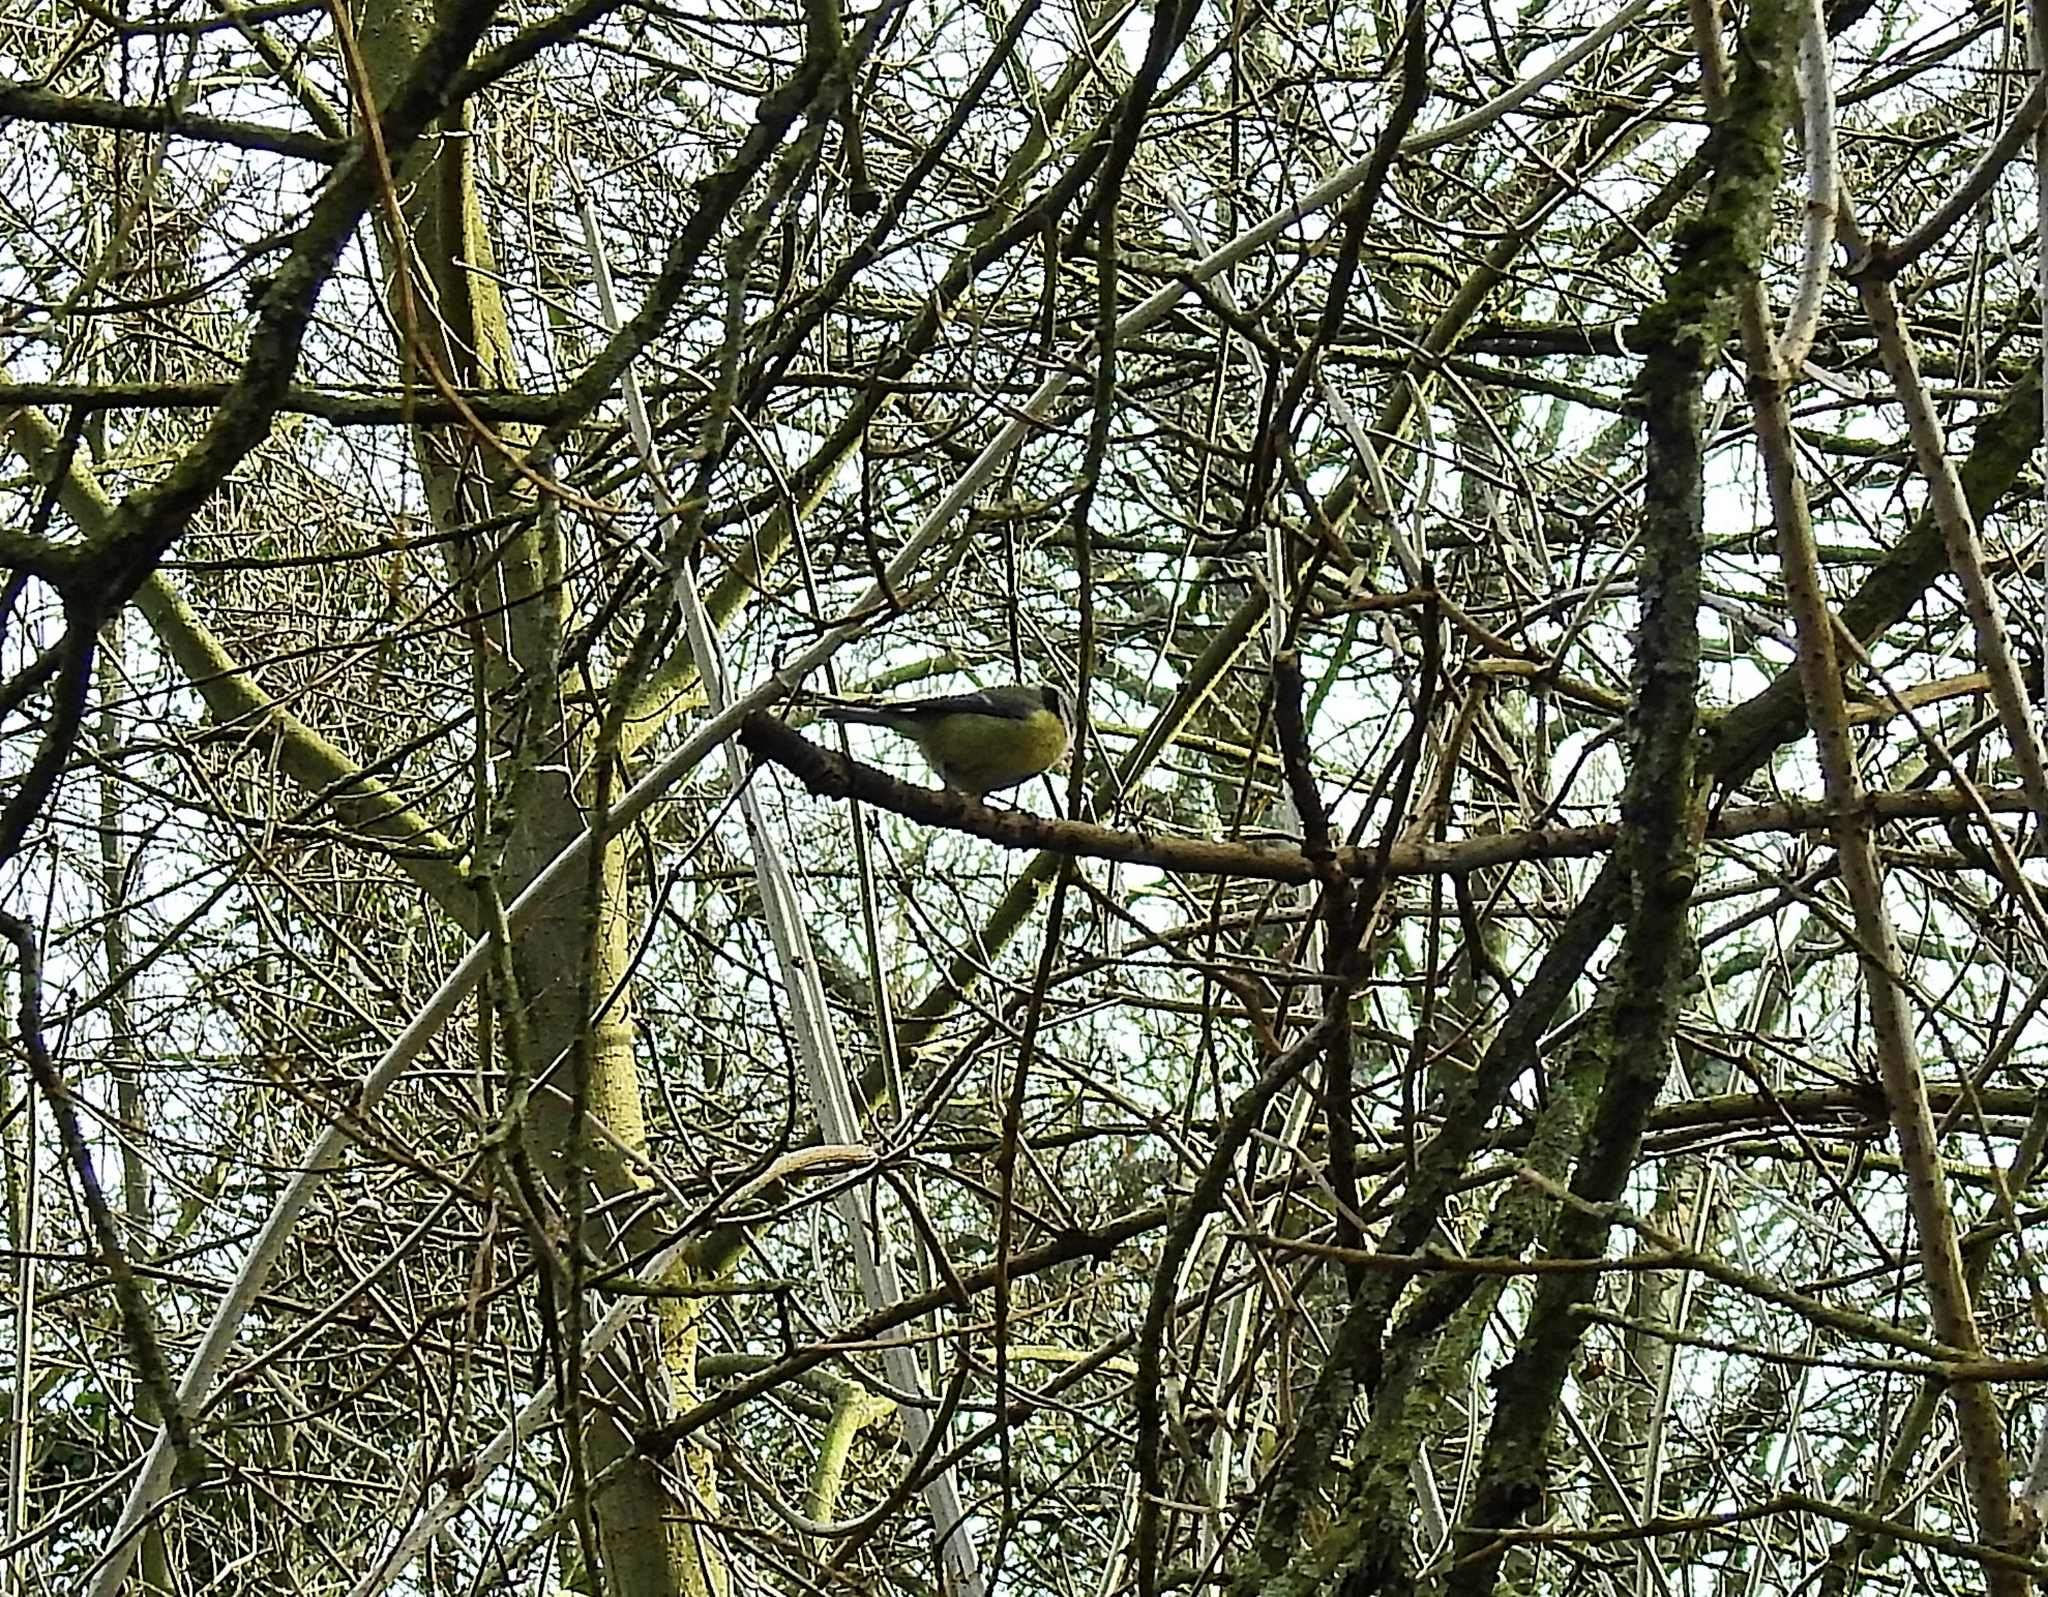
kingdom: Animalia
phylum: Chordata
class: Aves
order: Passeriformes
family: Paridae
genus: Cyanistes
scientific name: Cyanistes caeruleus
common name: Eurasian blue tit
